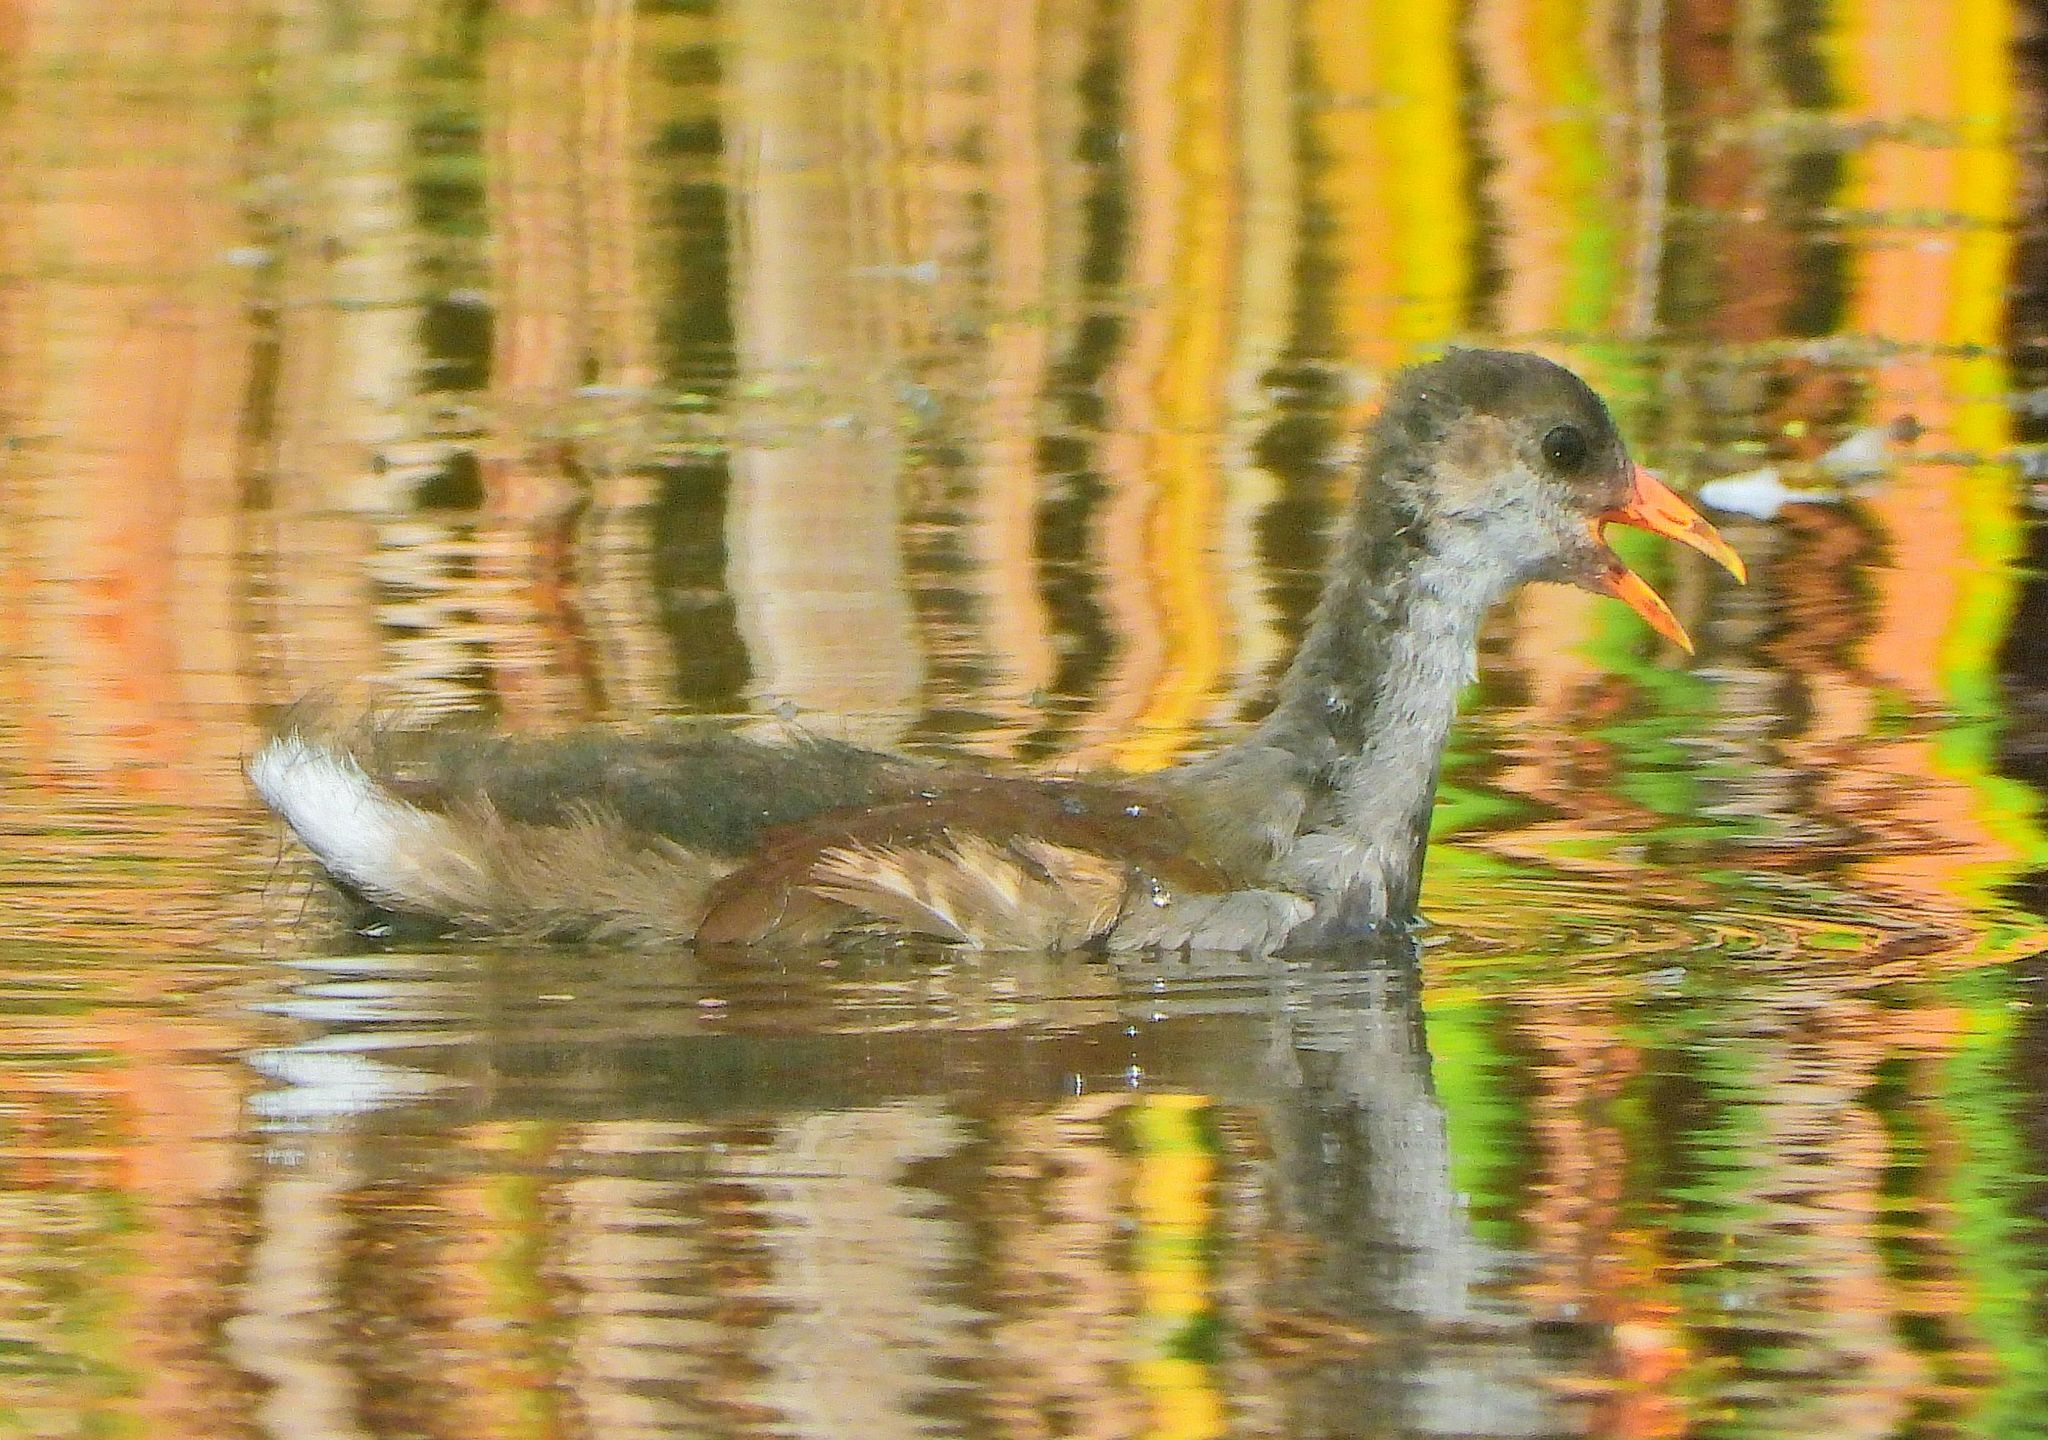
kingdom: Animalia
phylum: Chordata
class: Aves
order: Gruiformes
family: Rallidae
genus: Gallinula
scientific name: Gallinula chloropus
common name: Common moorhen
